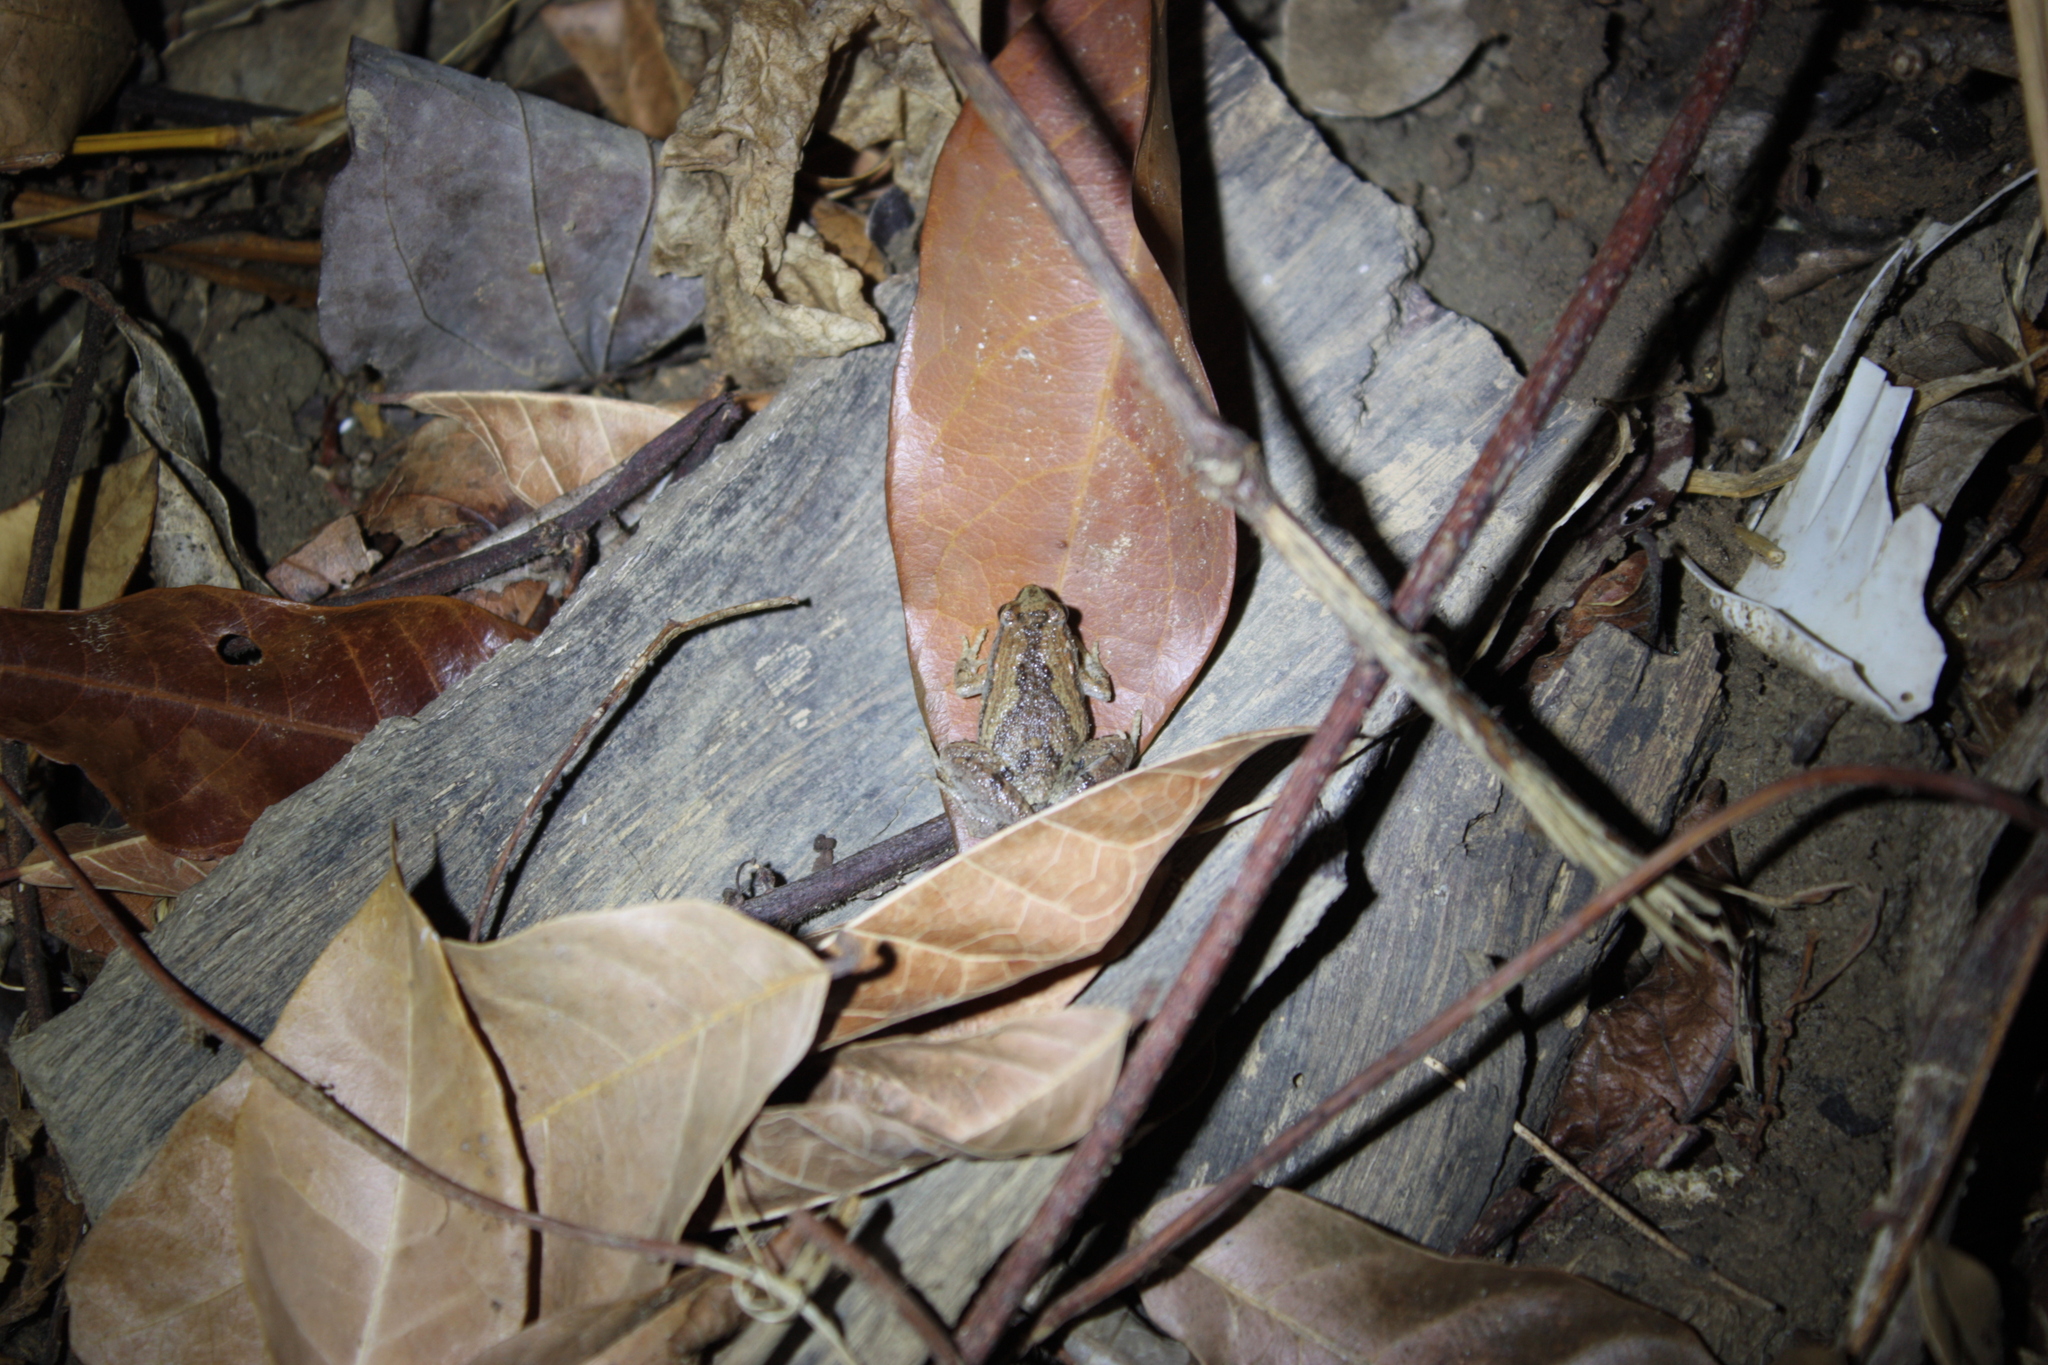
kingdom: Animalia
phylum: Chordata
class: Amphibia
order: Anura
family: Microhylidae
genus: Microhyla
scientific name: Microhyla fissipes
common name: Ornate narrow-mouthed frog
